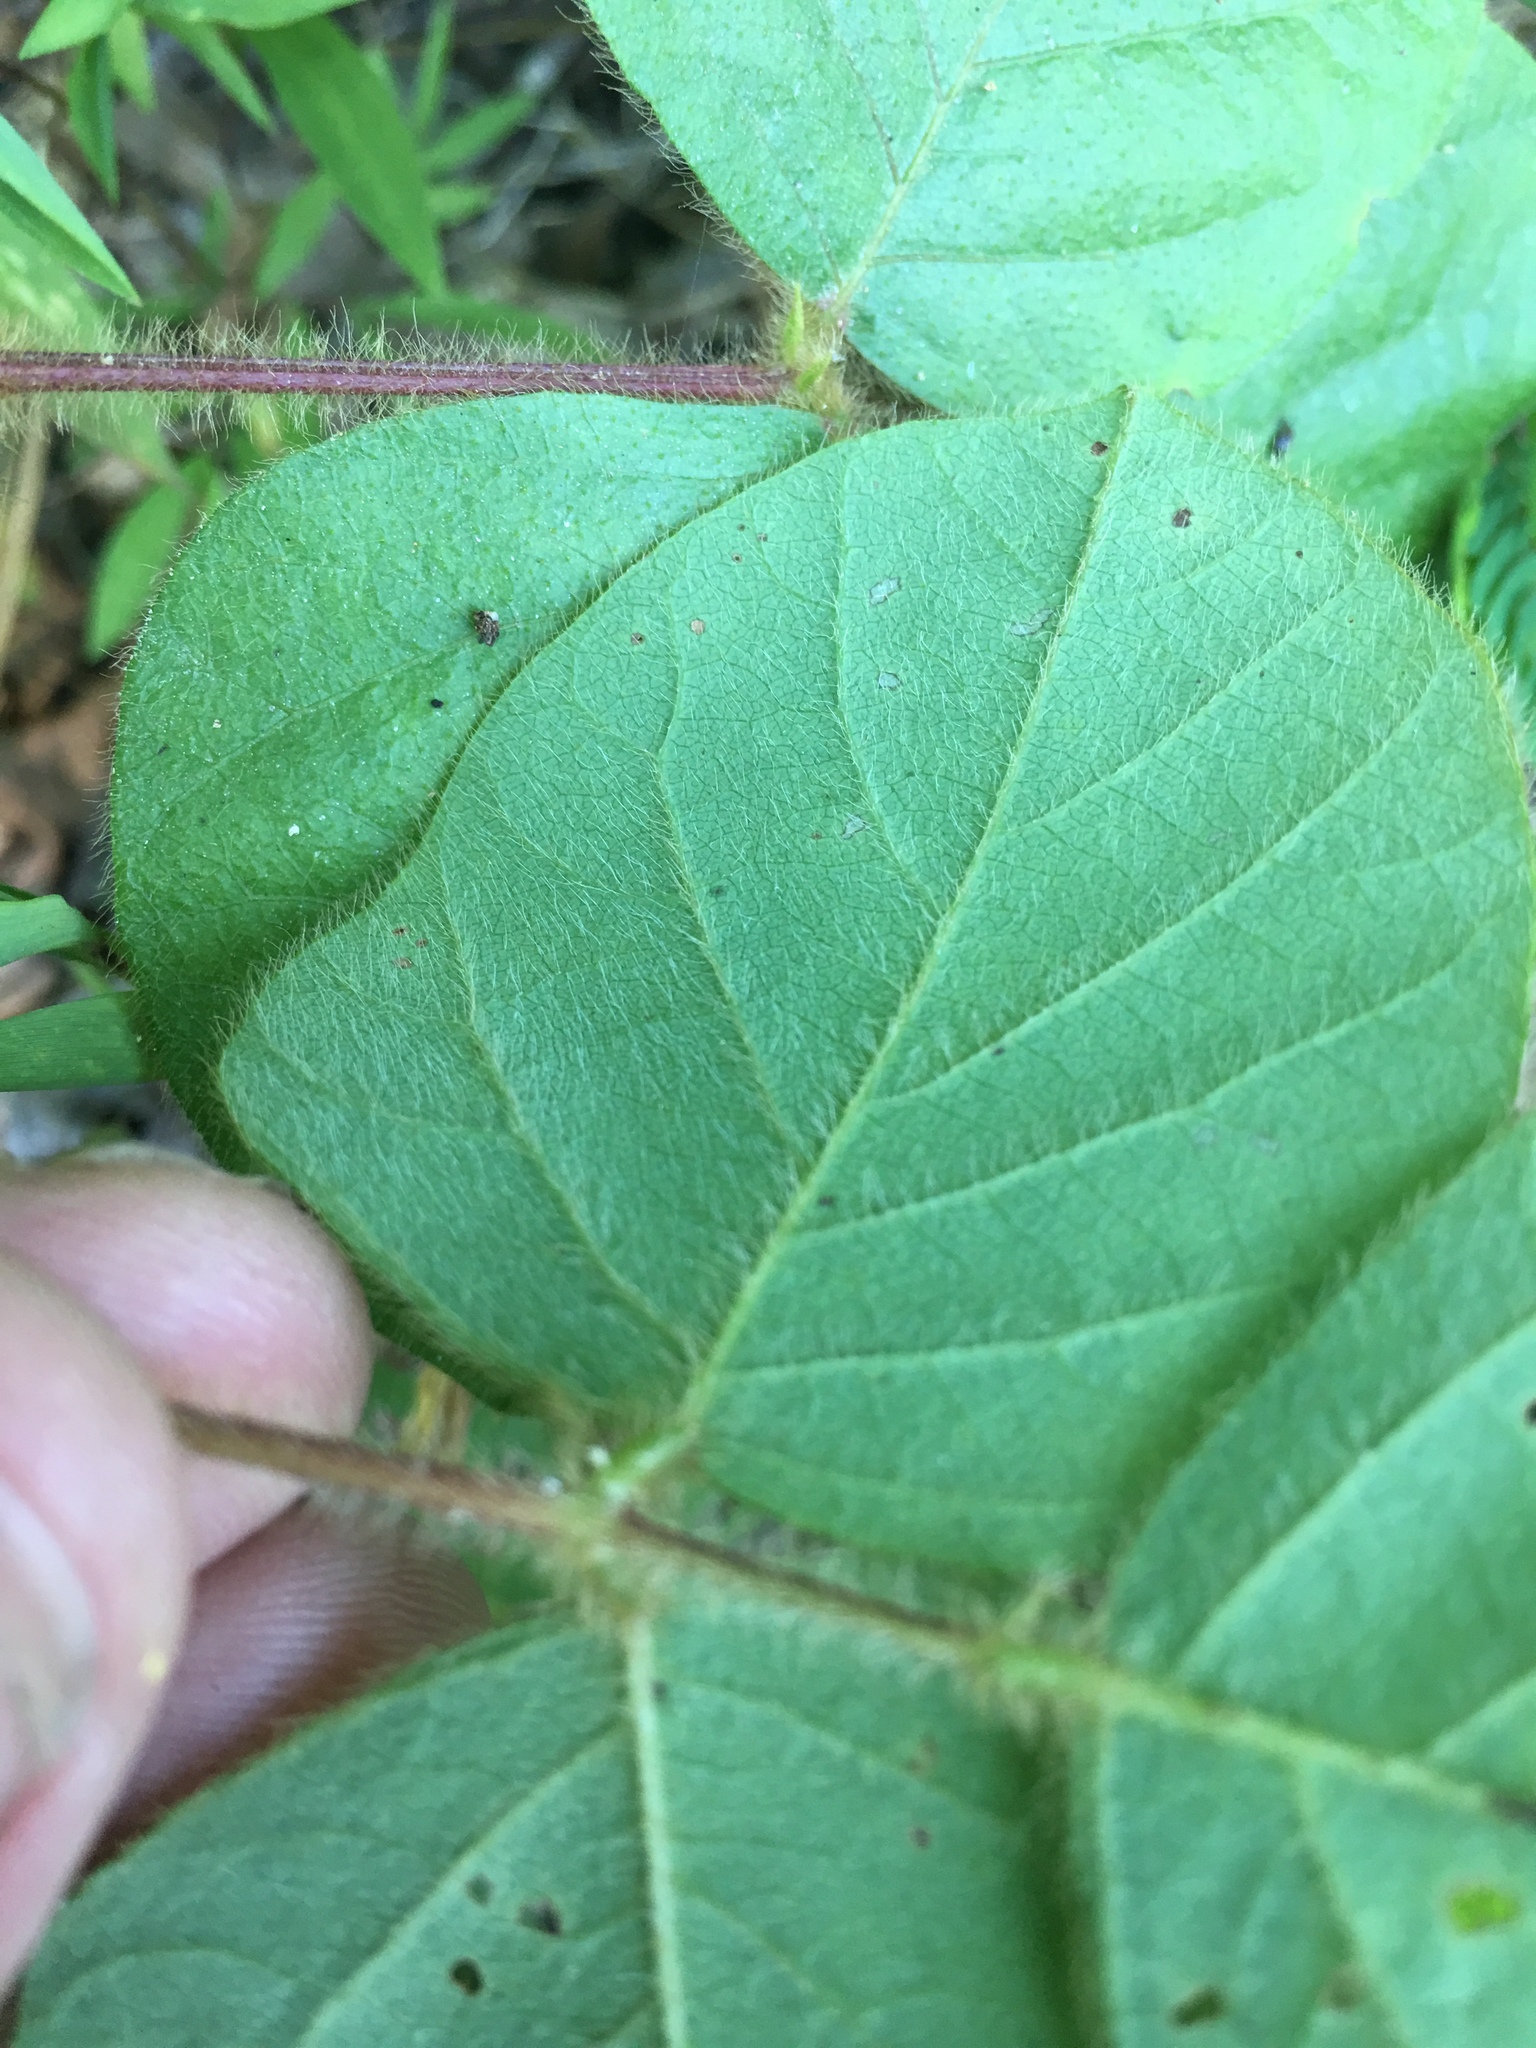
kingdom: Plantae
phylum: Tracheophyta
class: Magnoliopsida
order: Fabales
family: Fabaceae
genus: Desmodium
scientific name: Desmodium rotundifolium
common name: Dollarleaf
